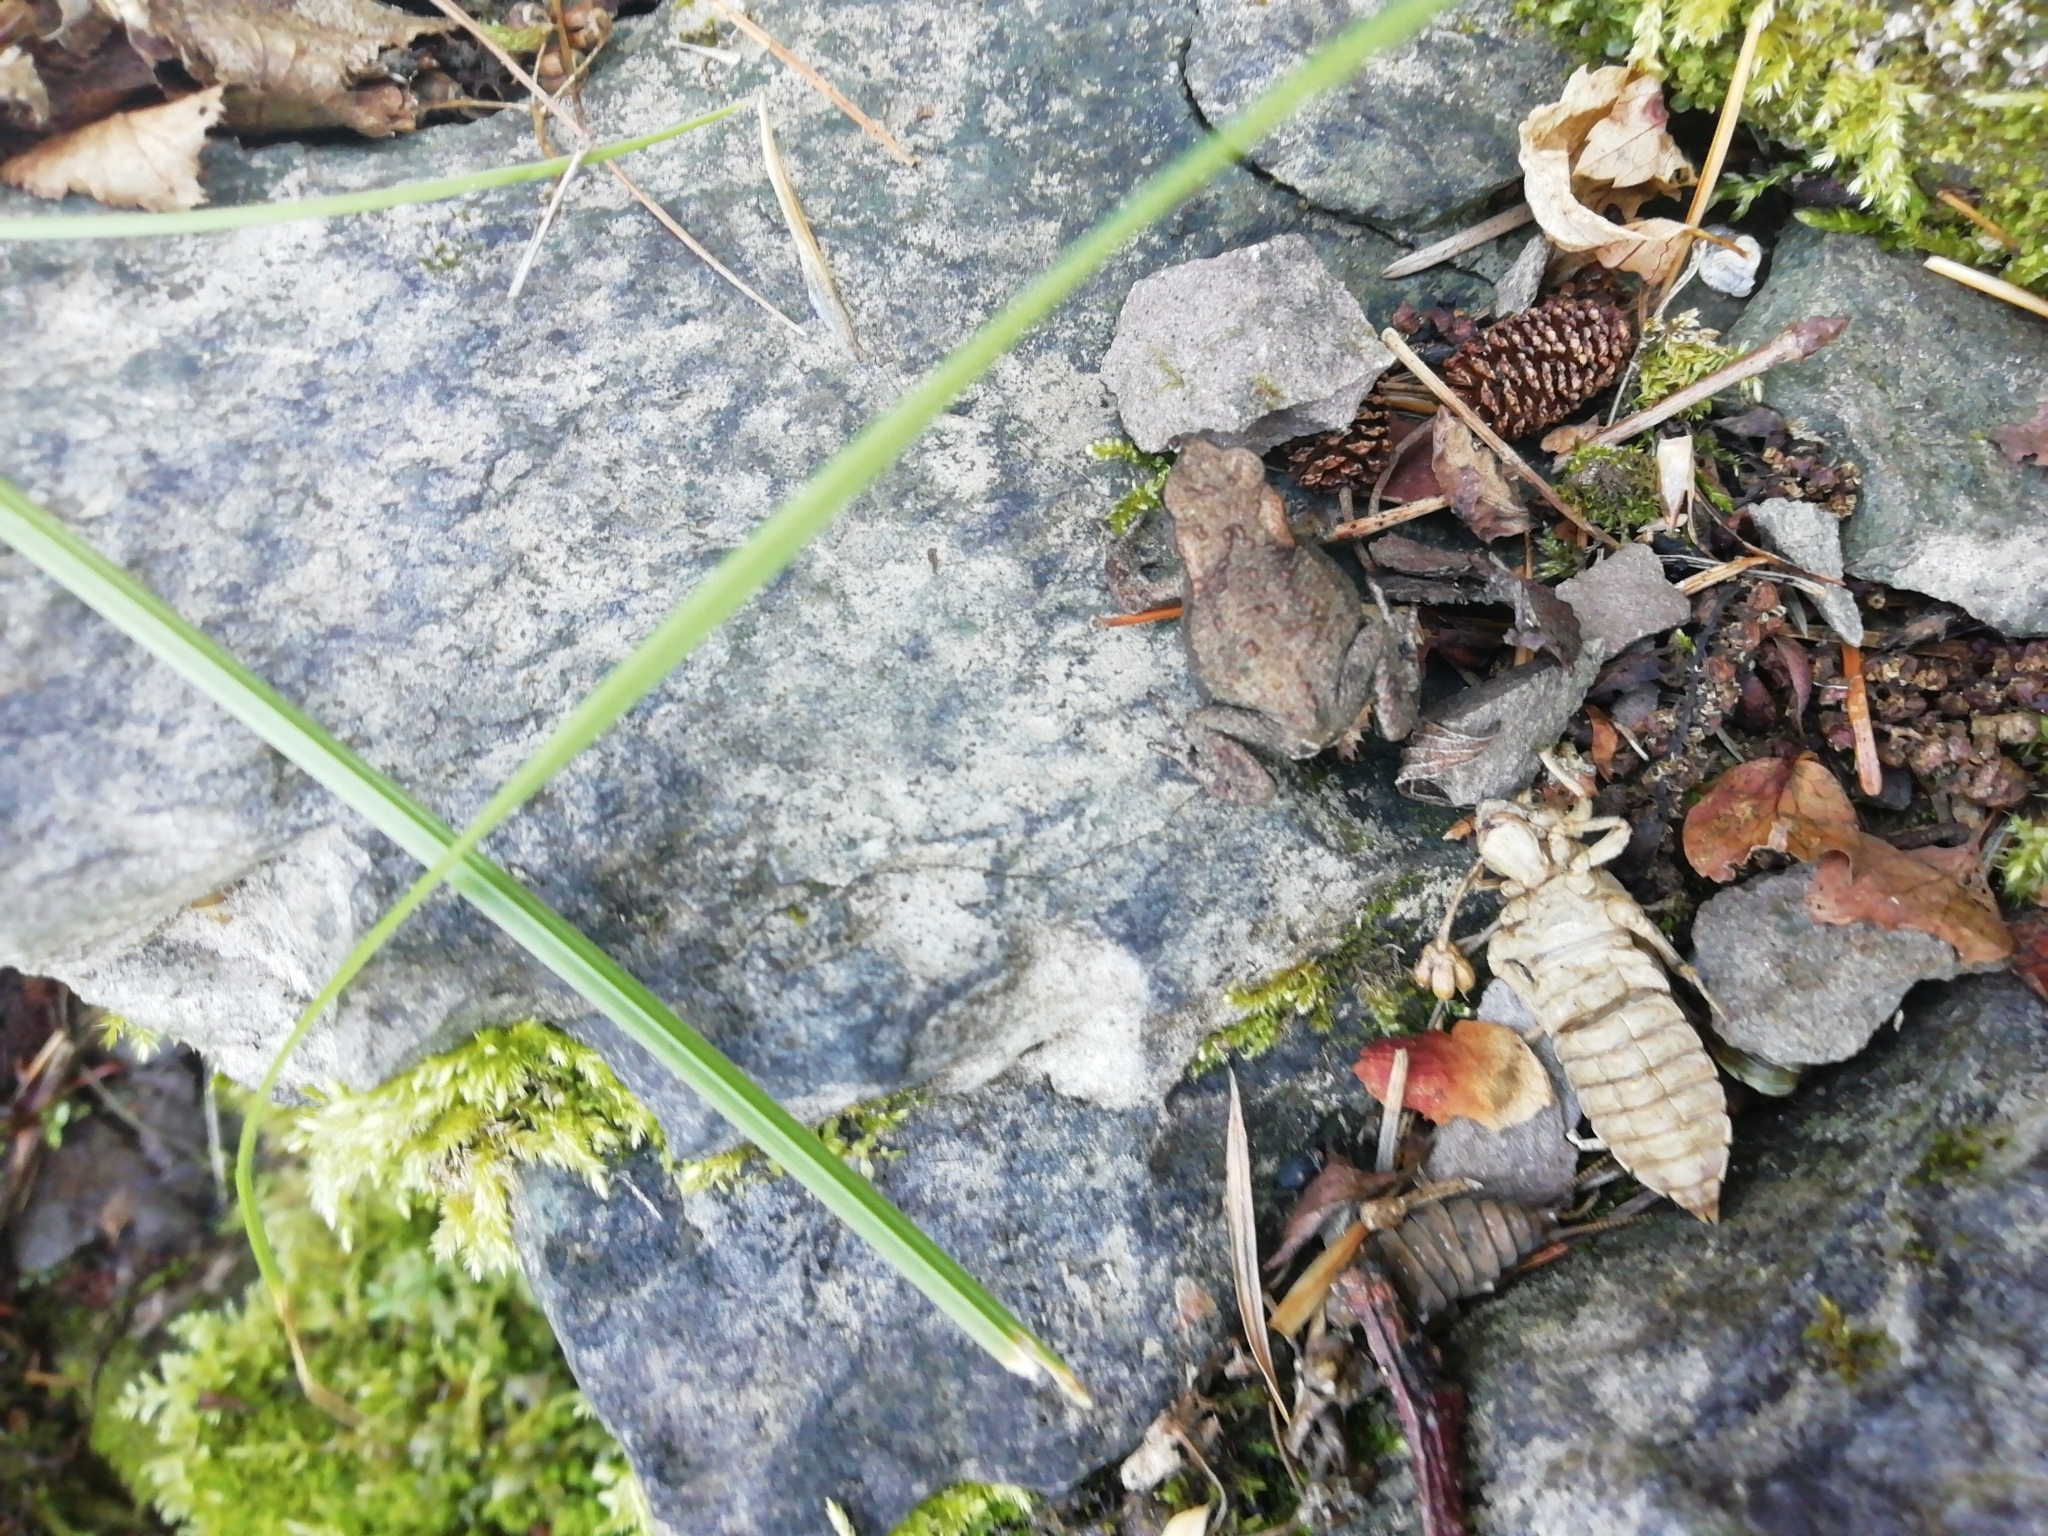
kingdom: Animalia
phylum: Chordata
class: Amphibia
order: Anura
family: Bufonidae
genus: Bufo
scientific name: Bufo bufo
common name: Common toad
